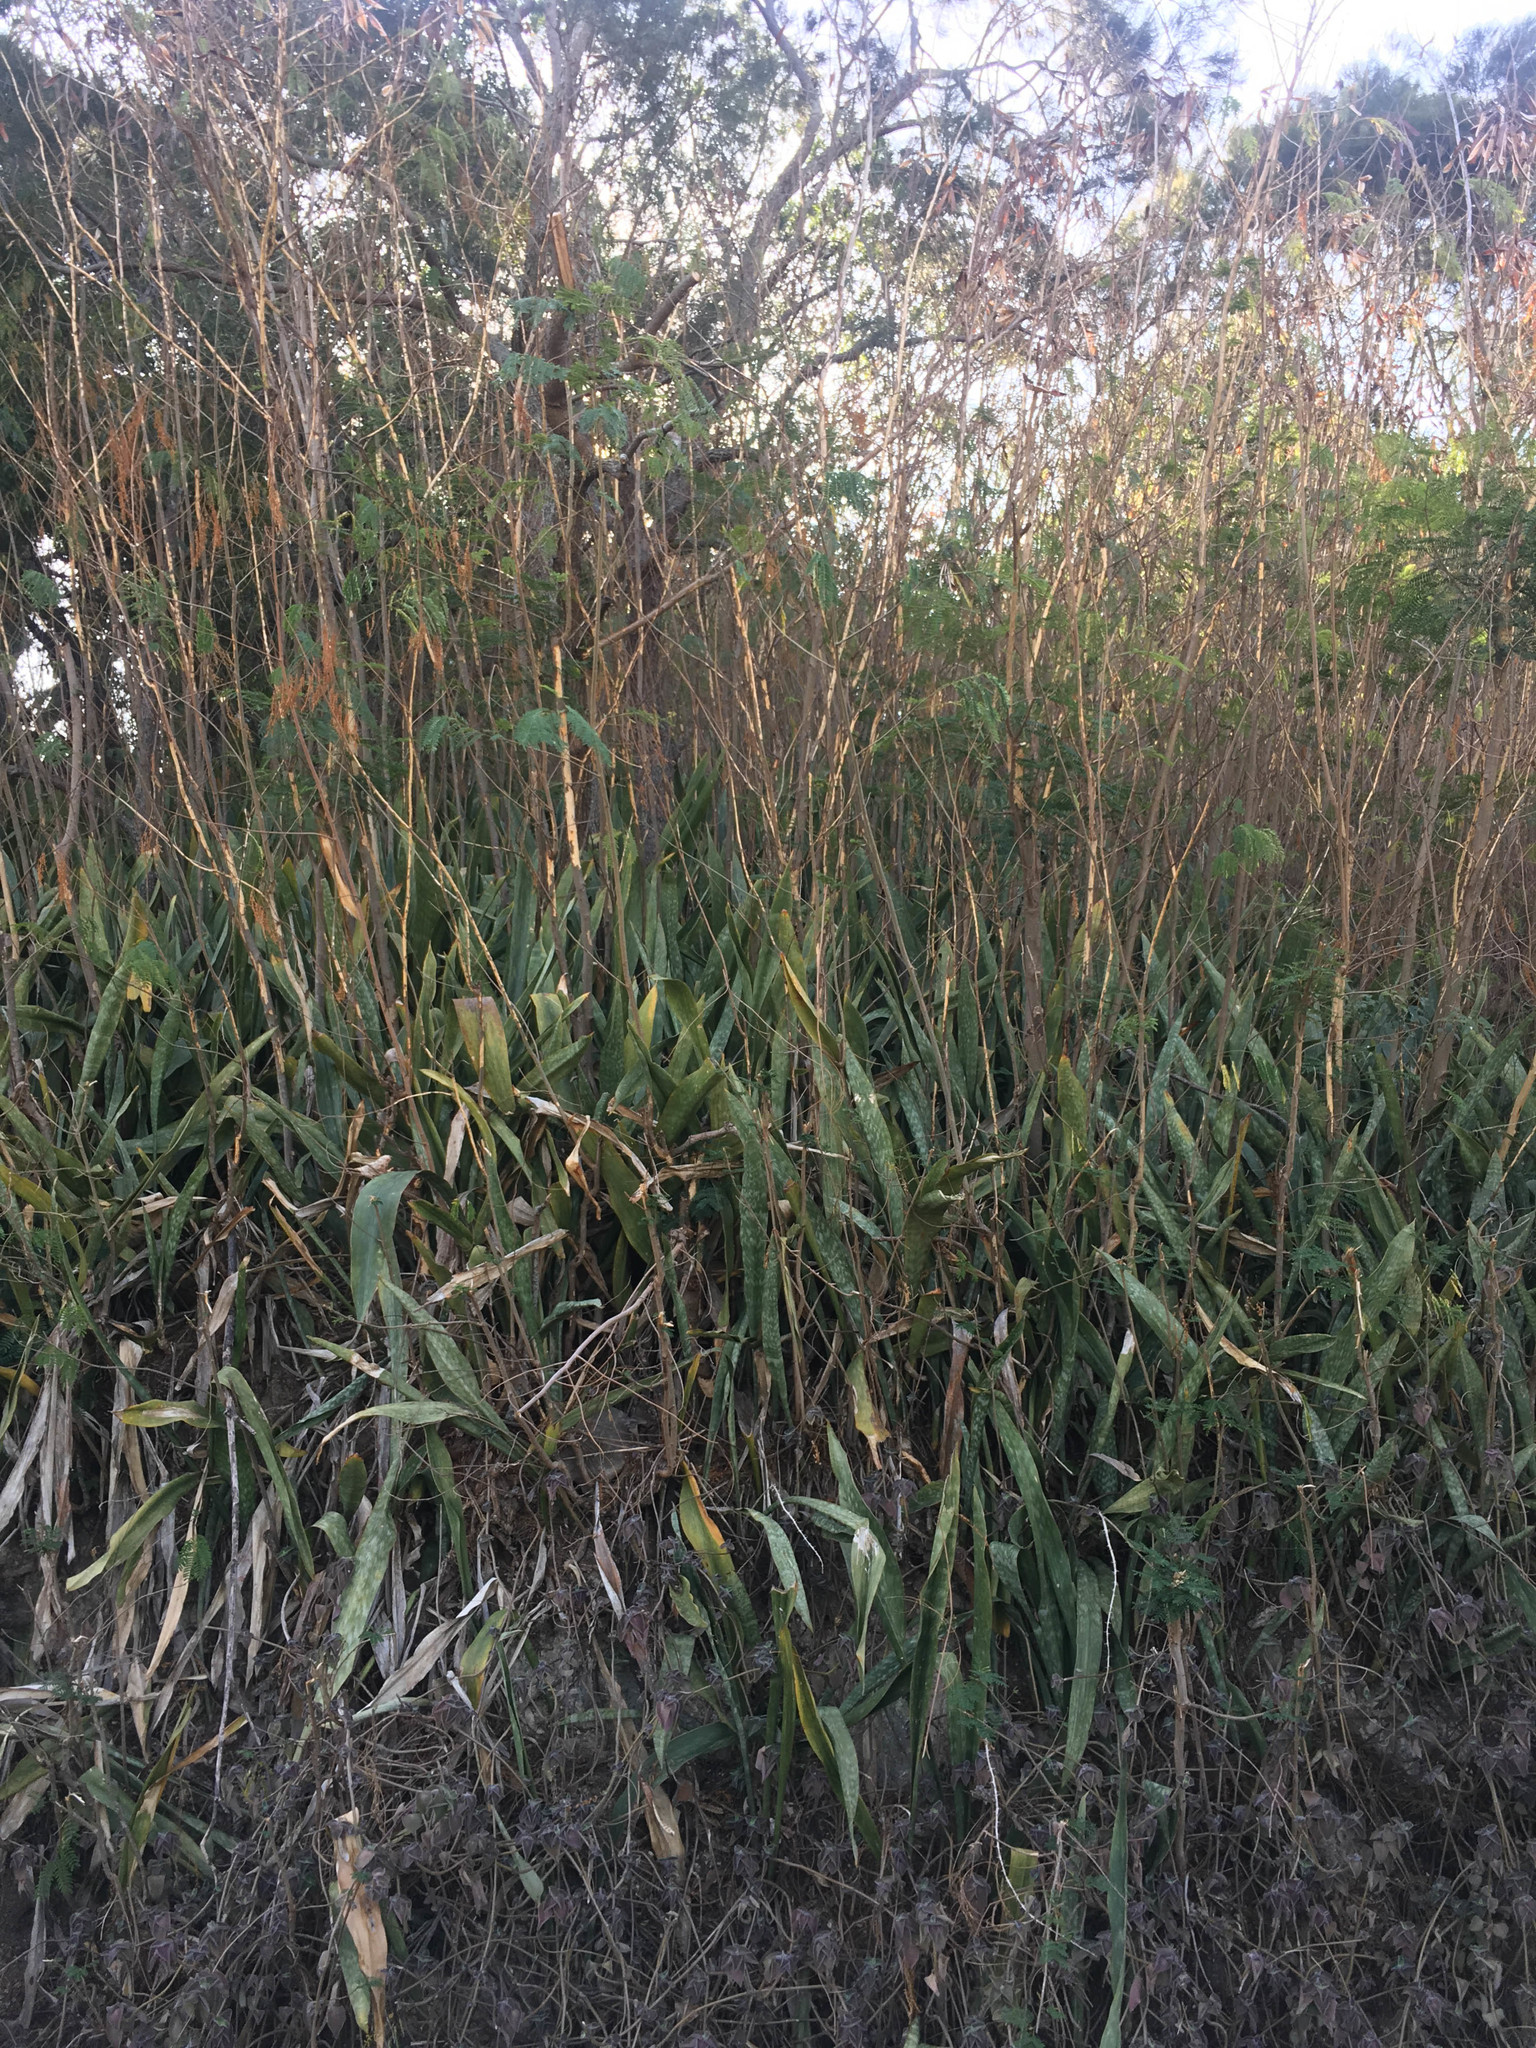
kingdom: Plantae
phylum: Tracheophyta
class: Liliopsida
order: Asparagales
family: Asparagaceae
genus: Dracaena
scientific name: Dracaena trifasciata
